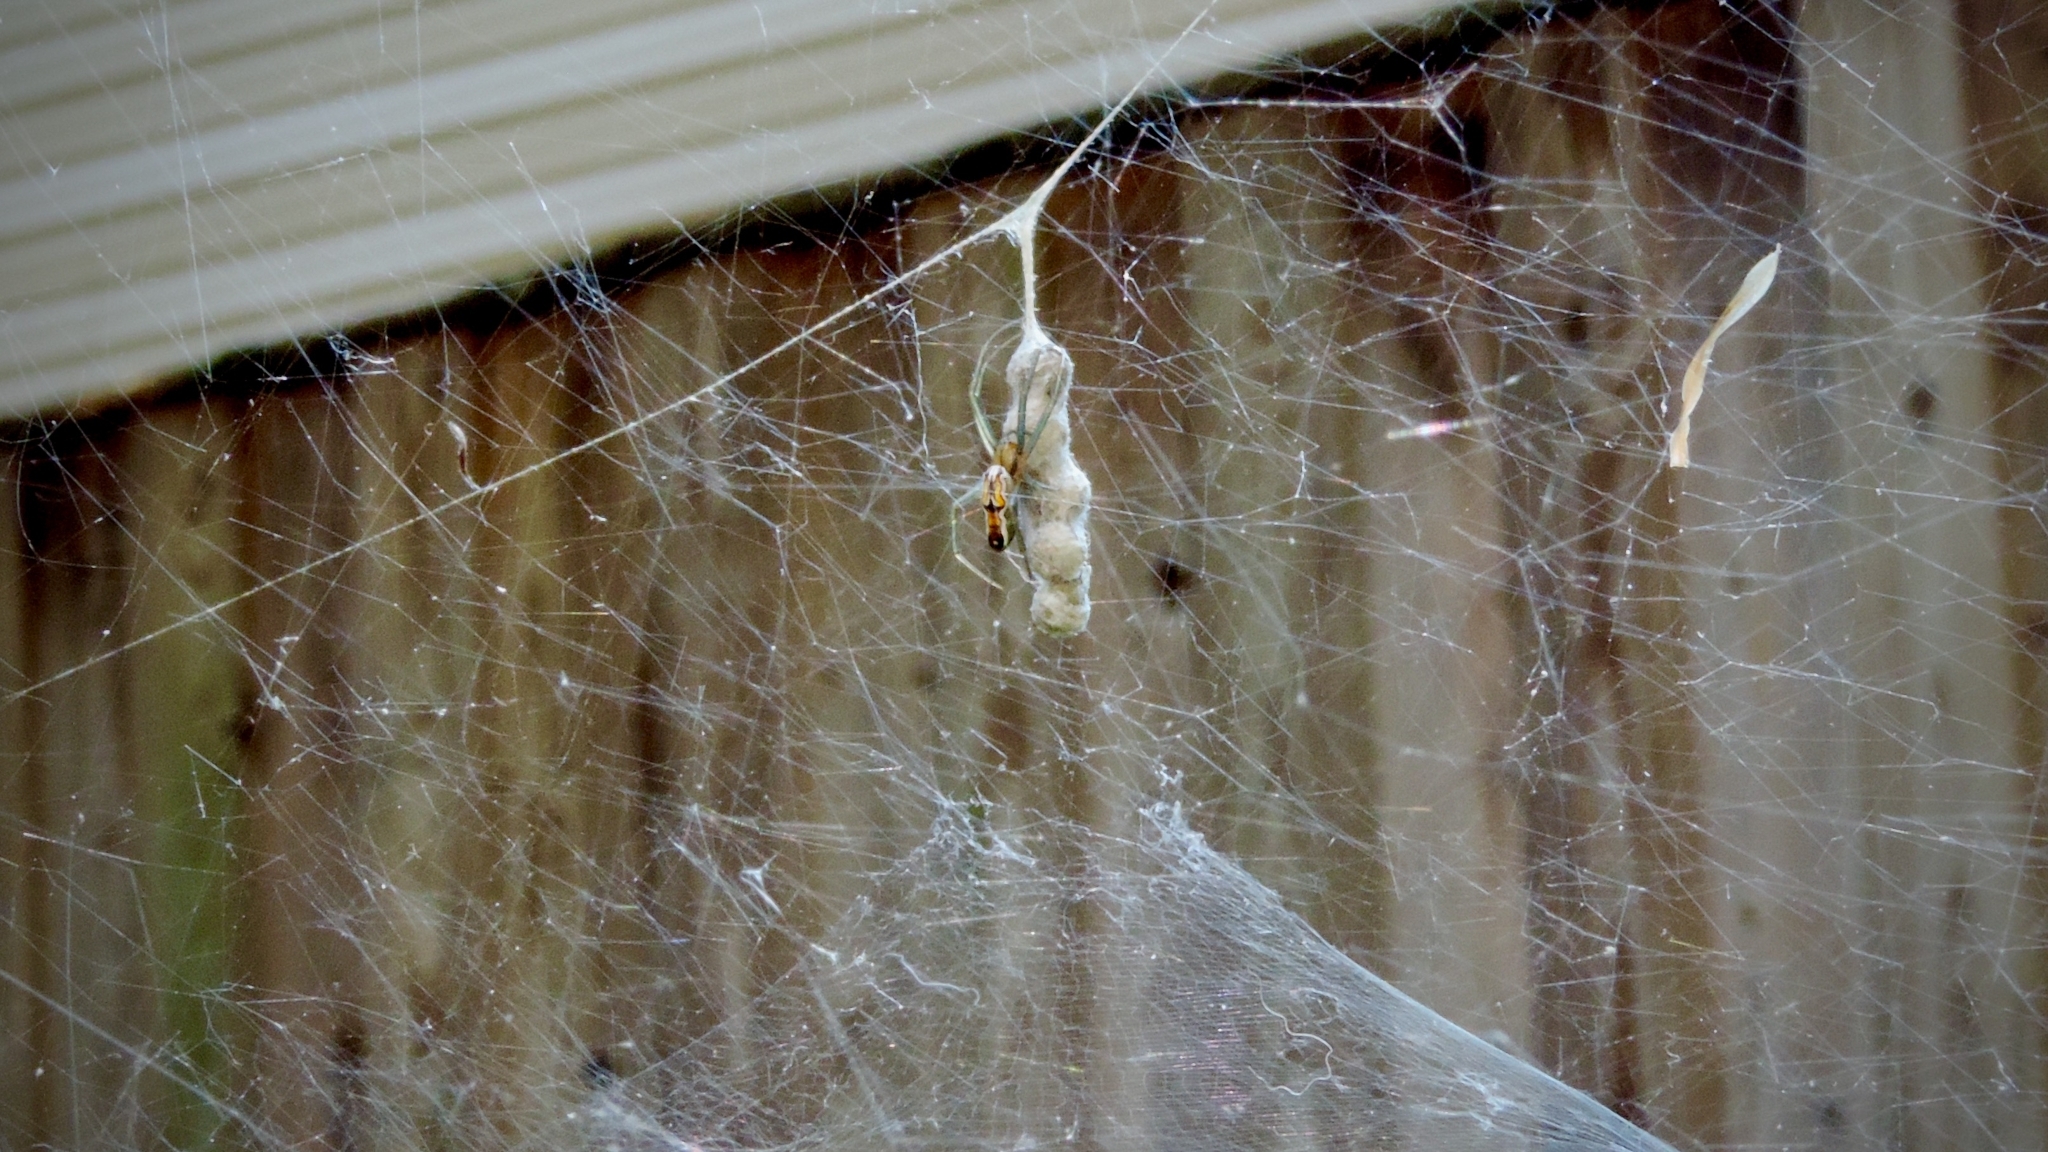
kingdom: Animalia
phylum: Arthropoda
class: Arachnida
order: Araneae
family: Araneidae
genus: Mecynogea
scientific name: Mecynogea lemniscata
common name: Orb weavers
